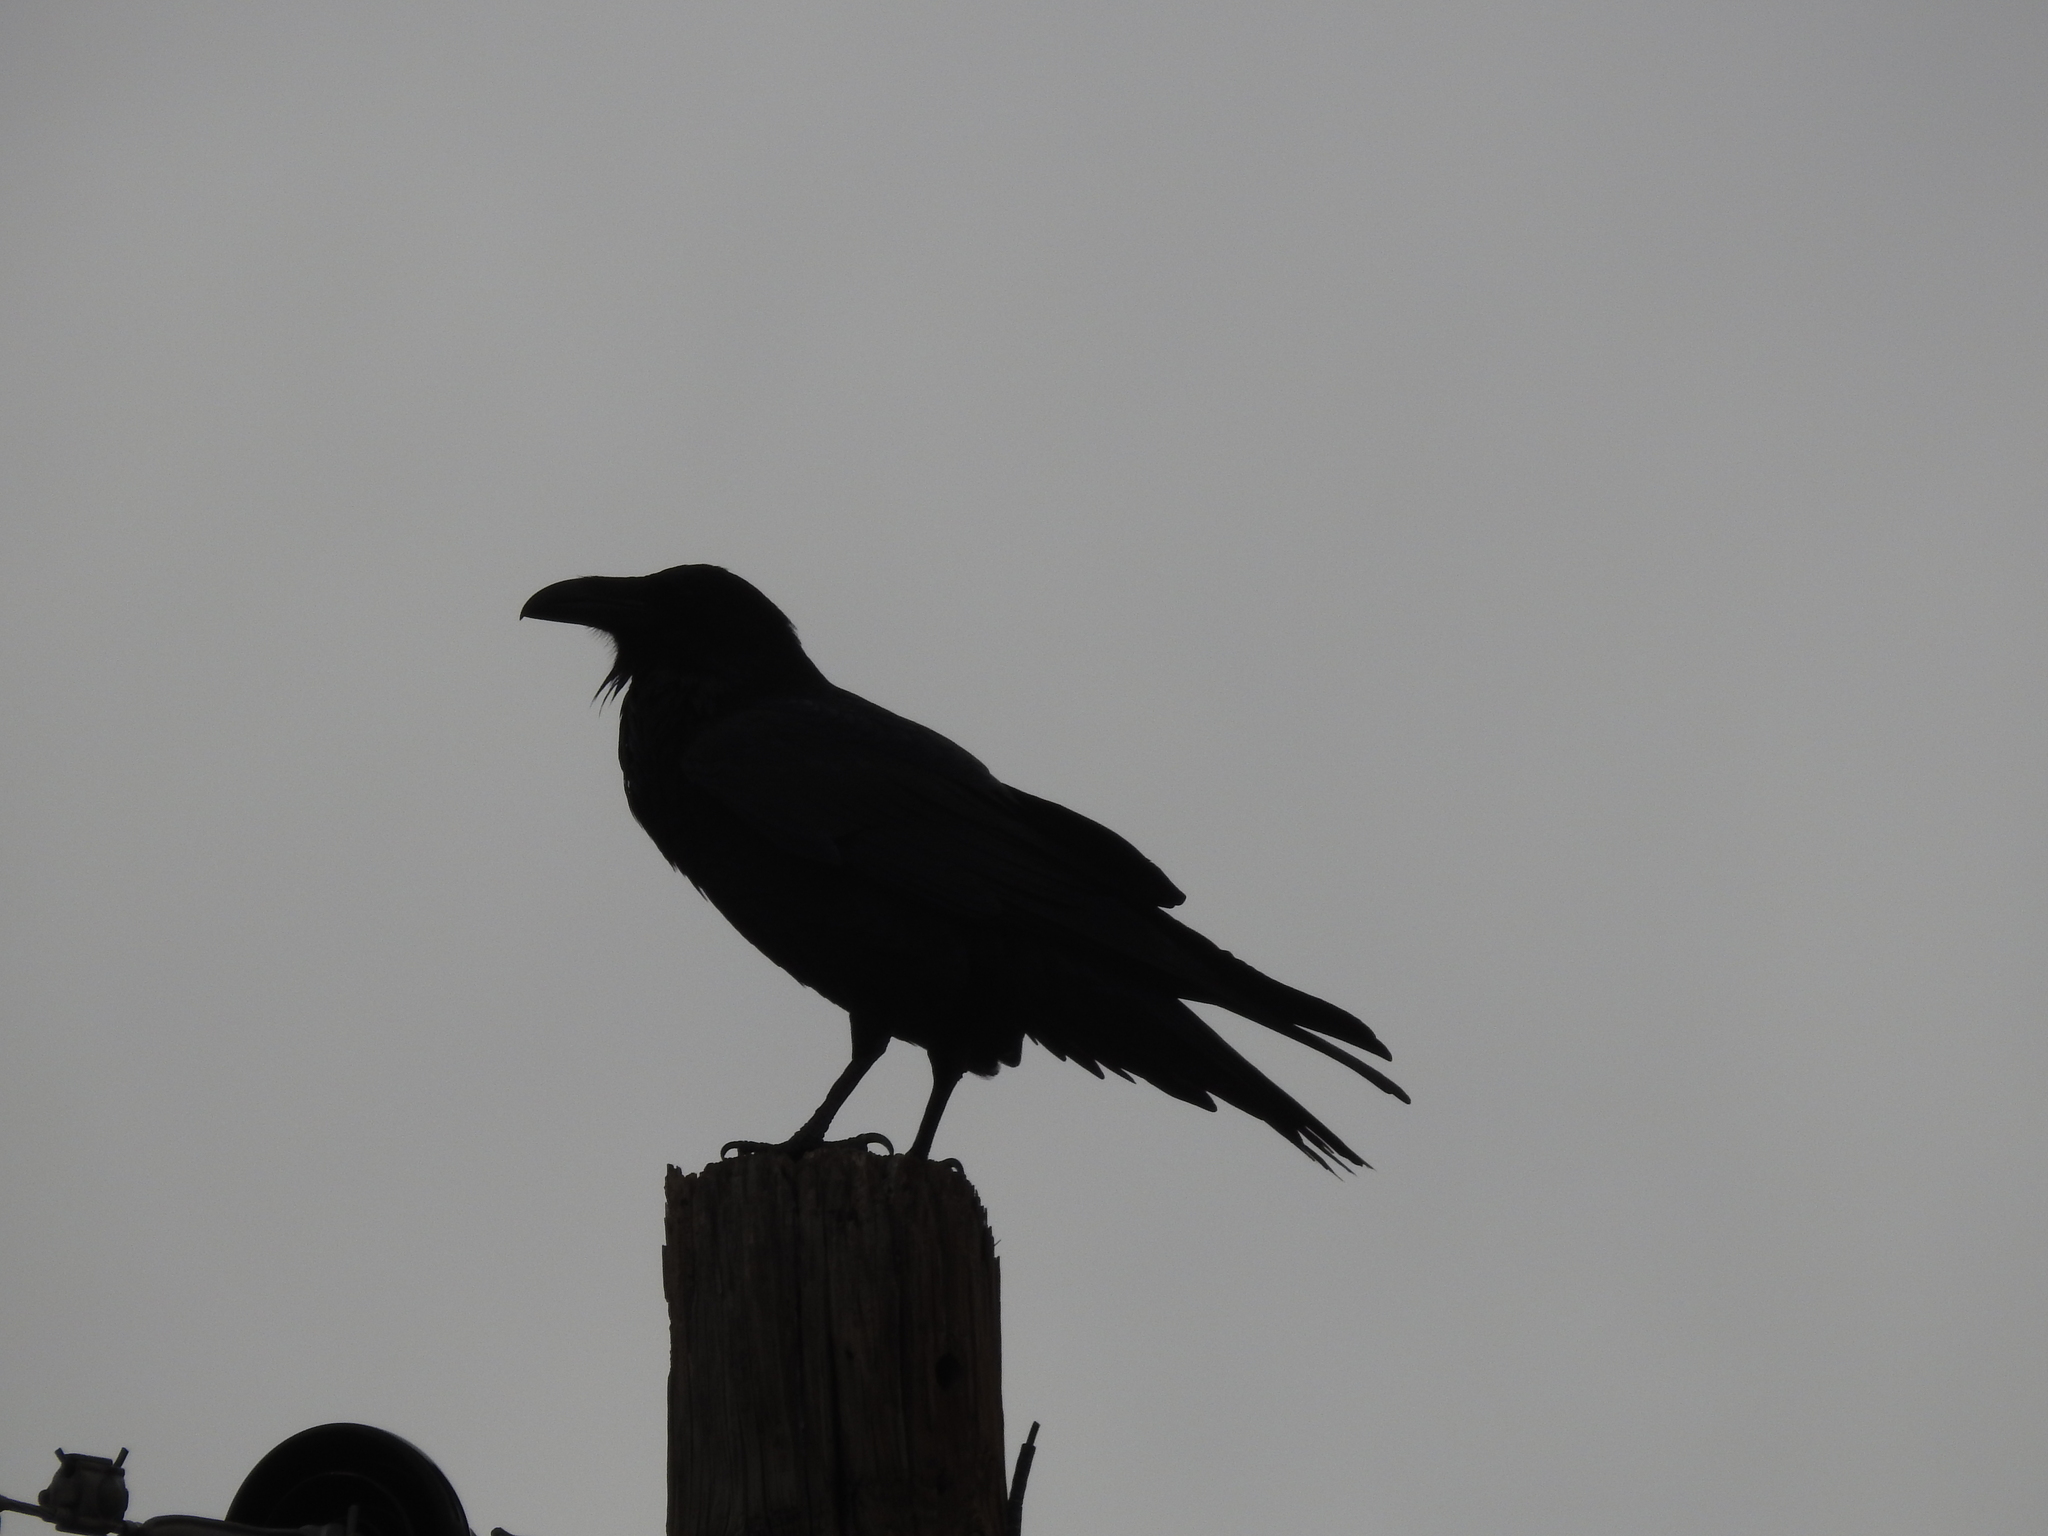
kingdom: Animalia
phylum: Chordata
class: Aves
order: Passeriformes
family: Corvidae
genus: Corvus
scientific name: Corvus corax
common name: Common raven
